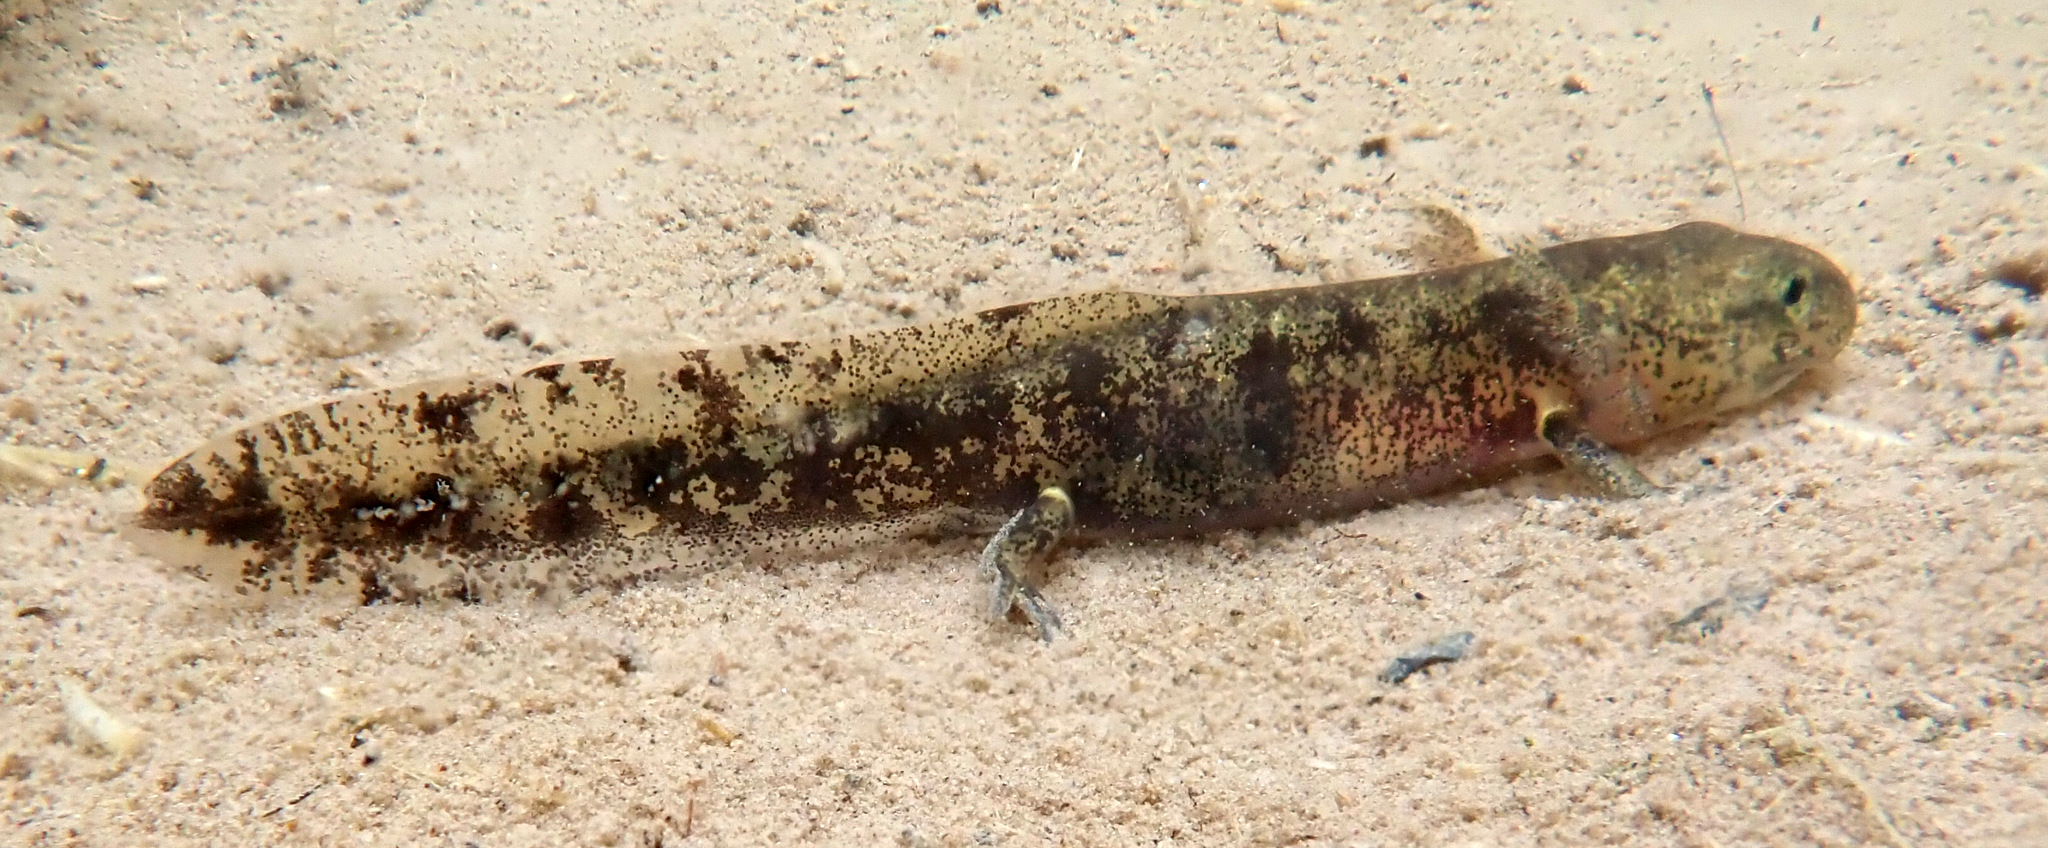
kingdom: Animalia
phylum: Chordata
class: Amphibia
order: Caudata
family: Salamandridae
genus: Salamandra
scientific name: Salamandra salamandra
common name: Fire salamander
